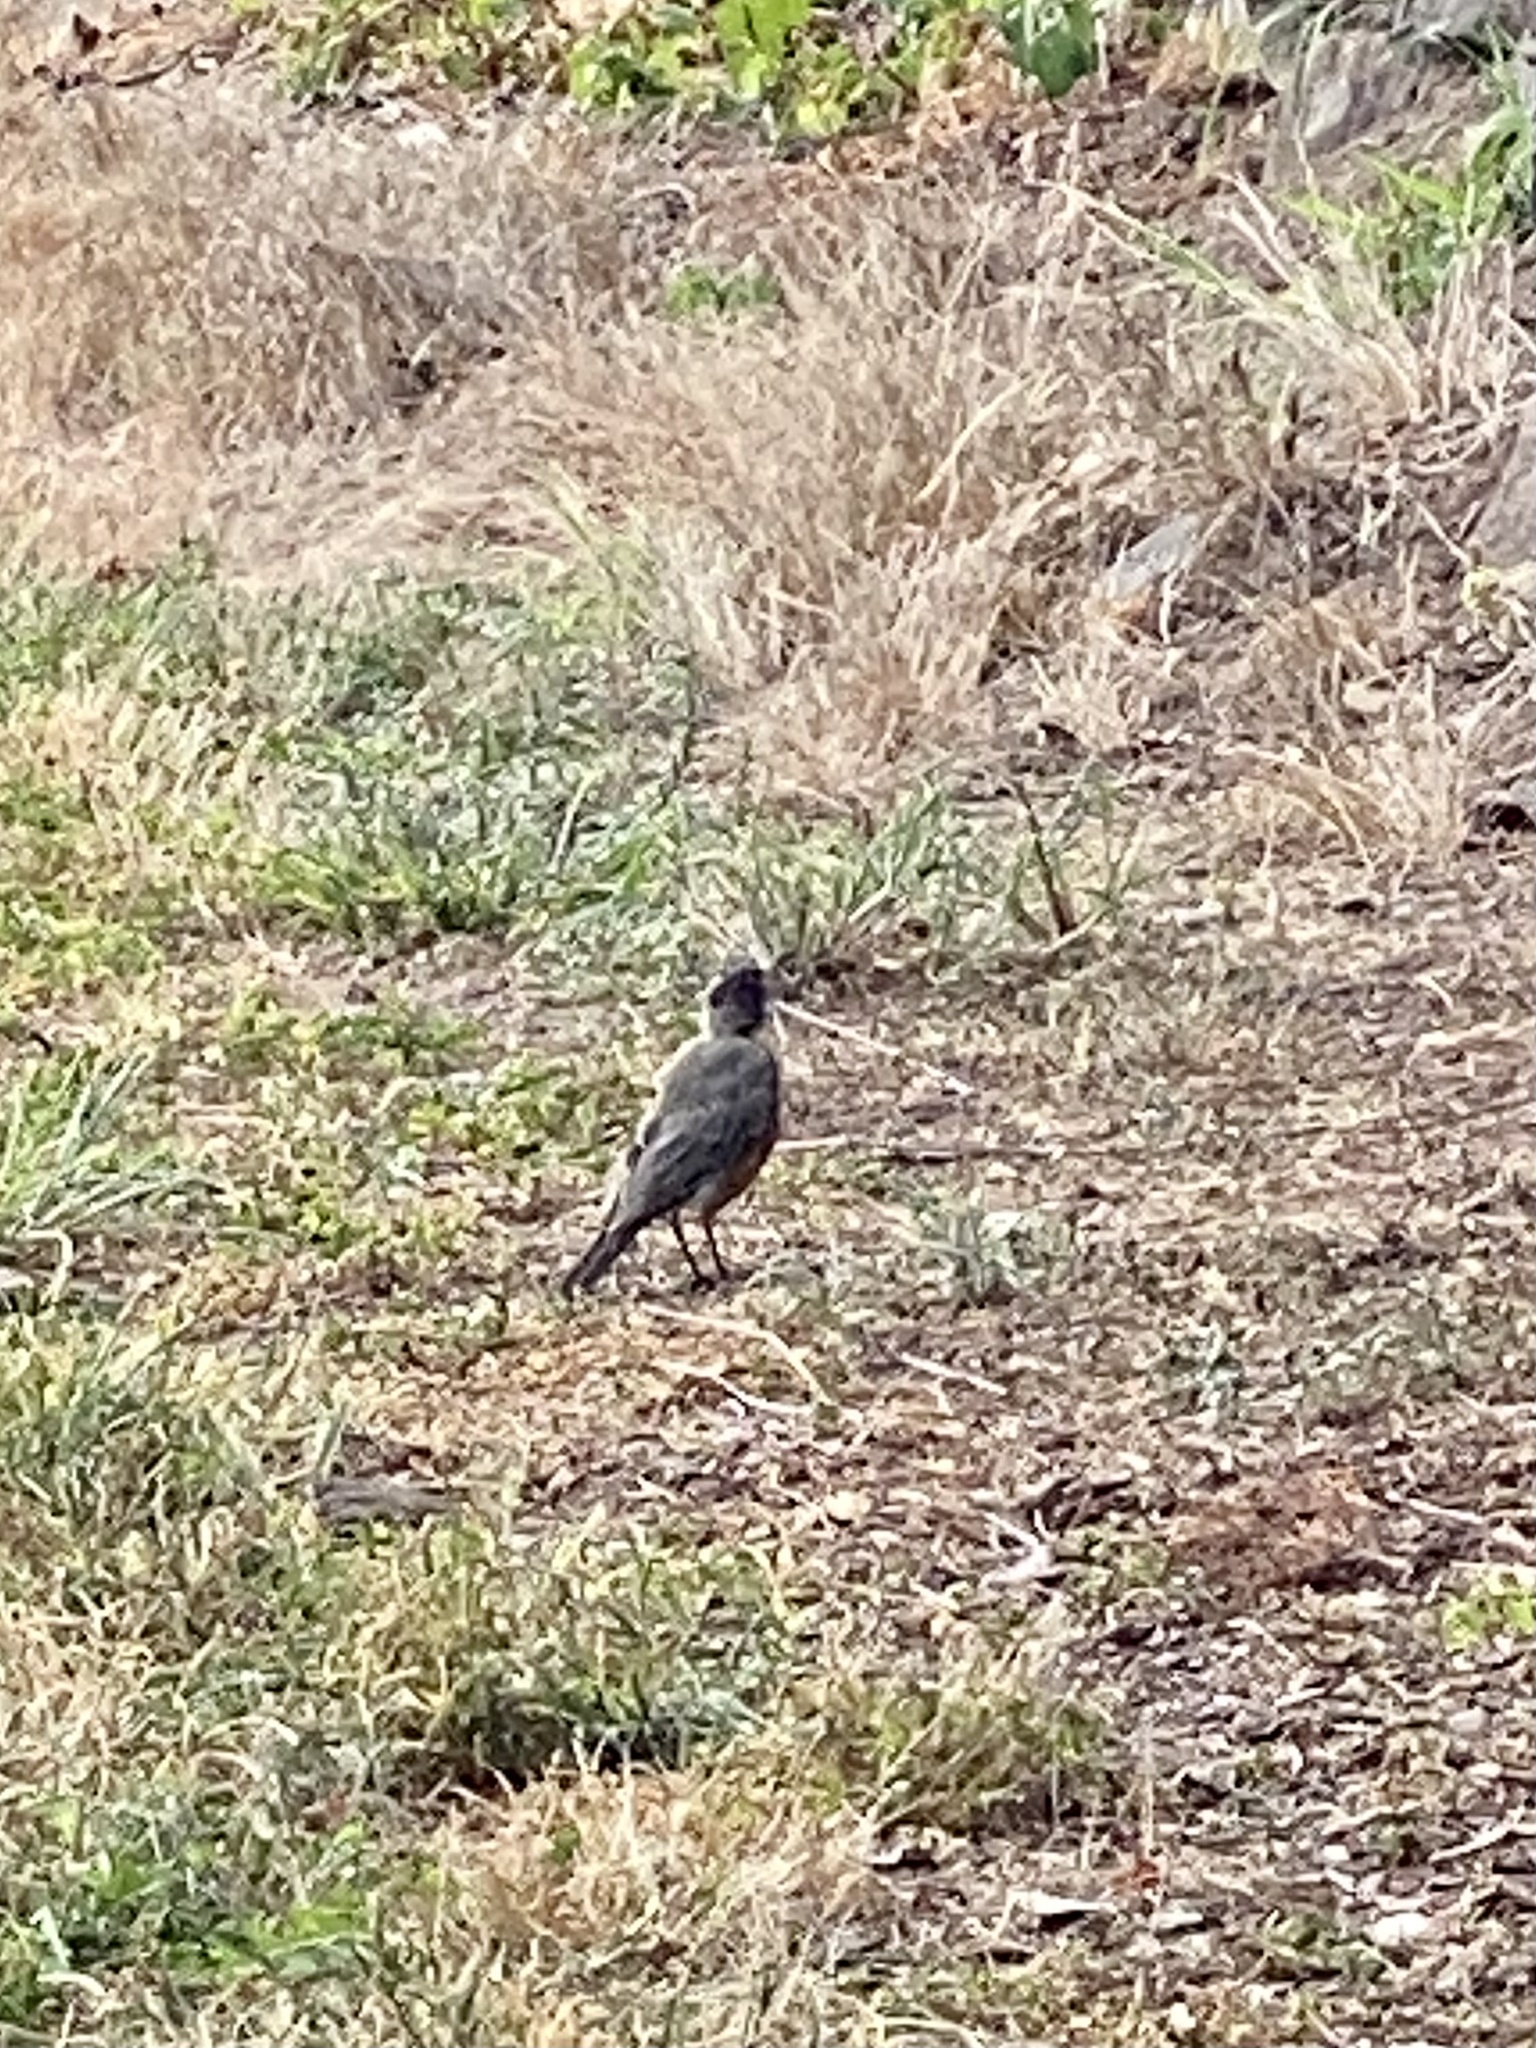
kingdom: Animalia
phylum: Chordata
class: Aves
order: Passeriformes
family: Turdidae
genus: Turdus
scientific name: Turdus migratorius
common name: American robin
